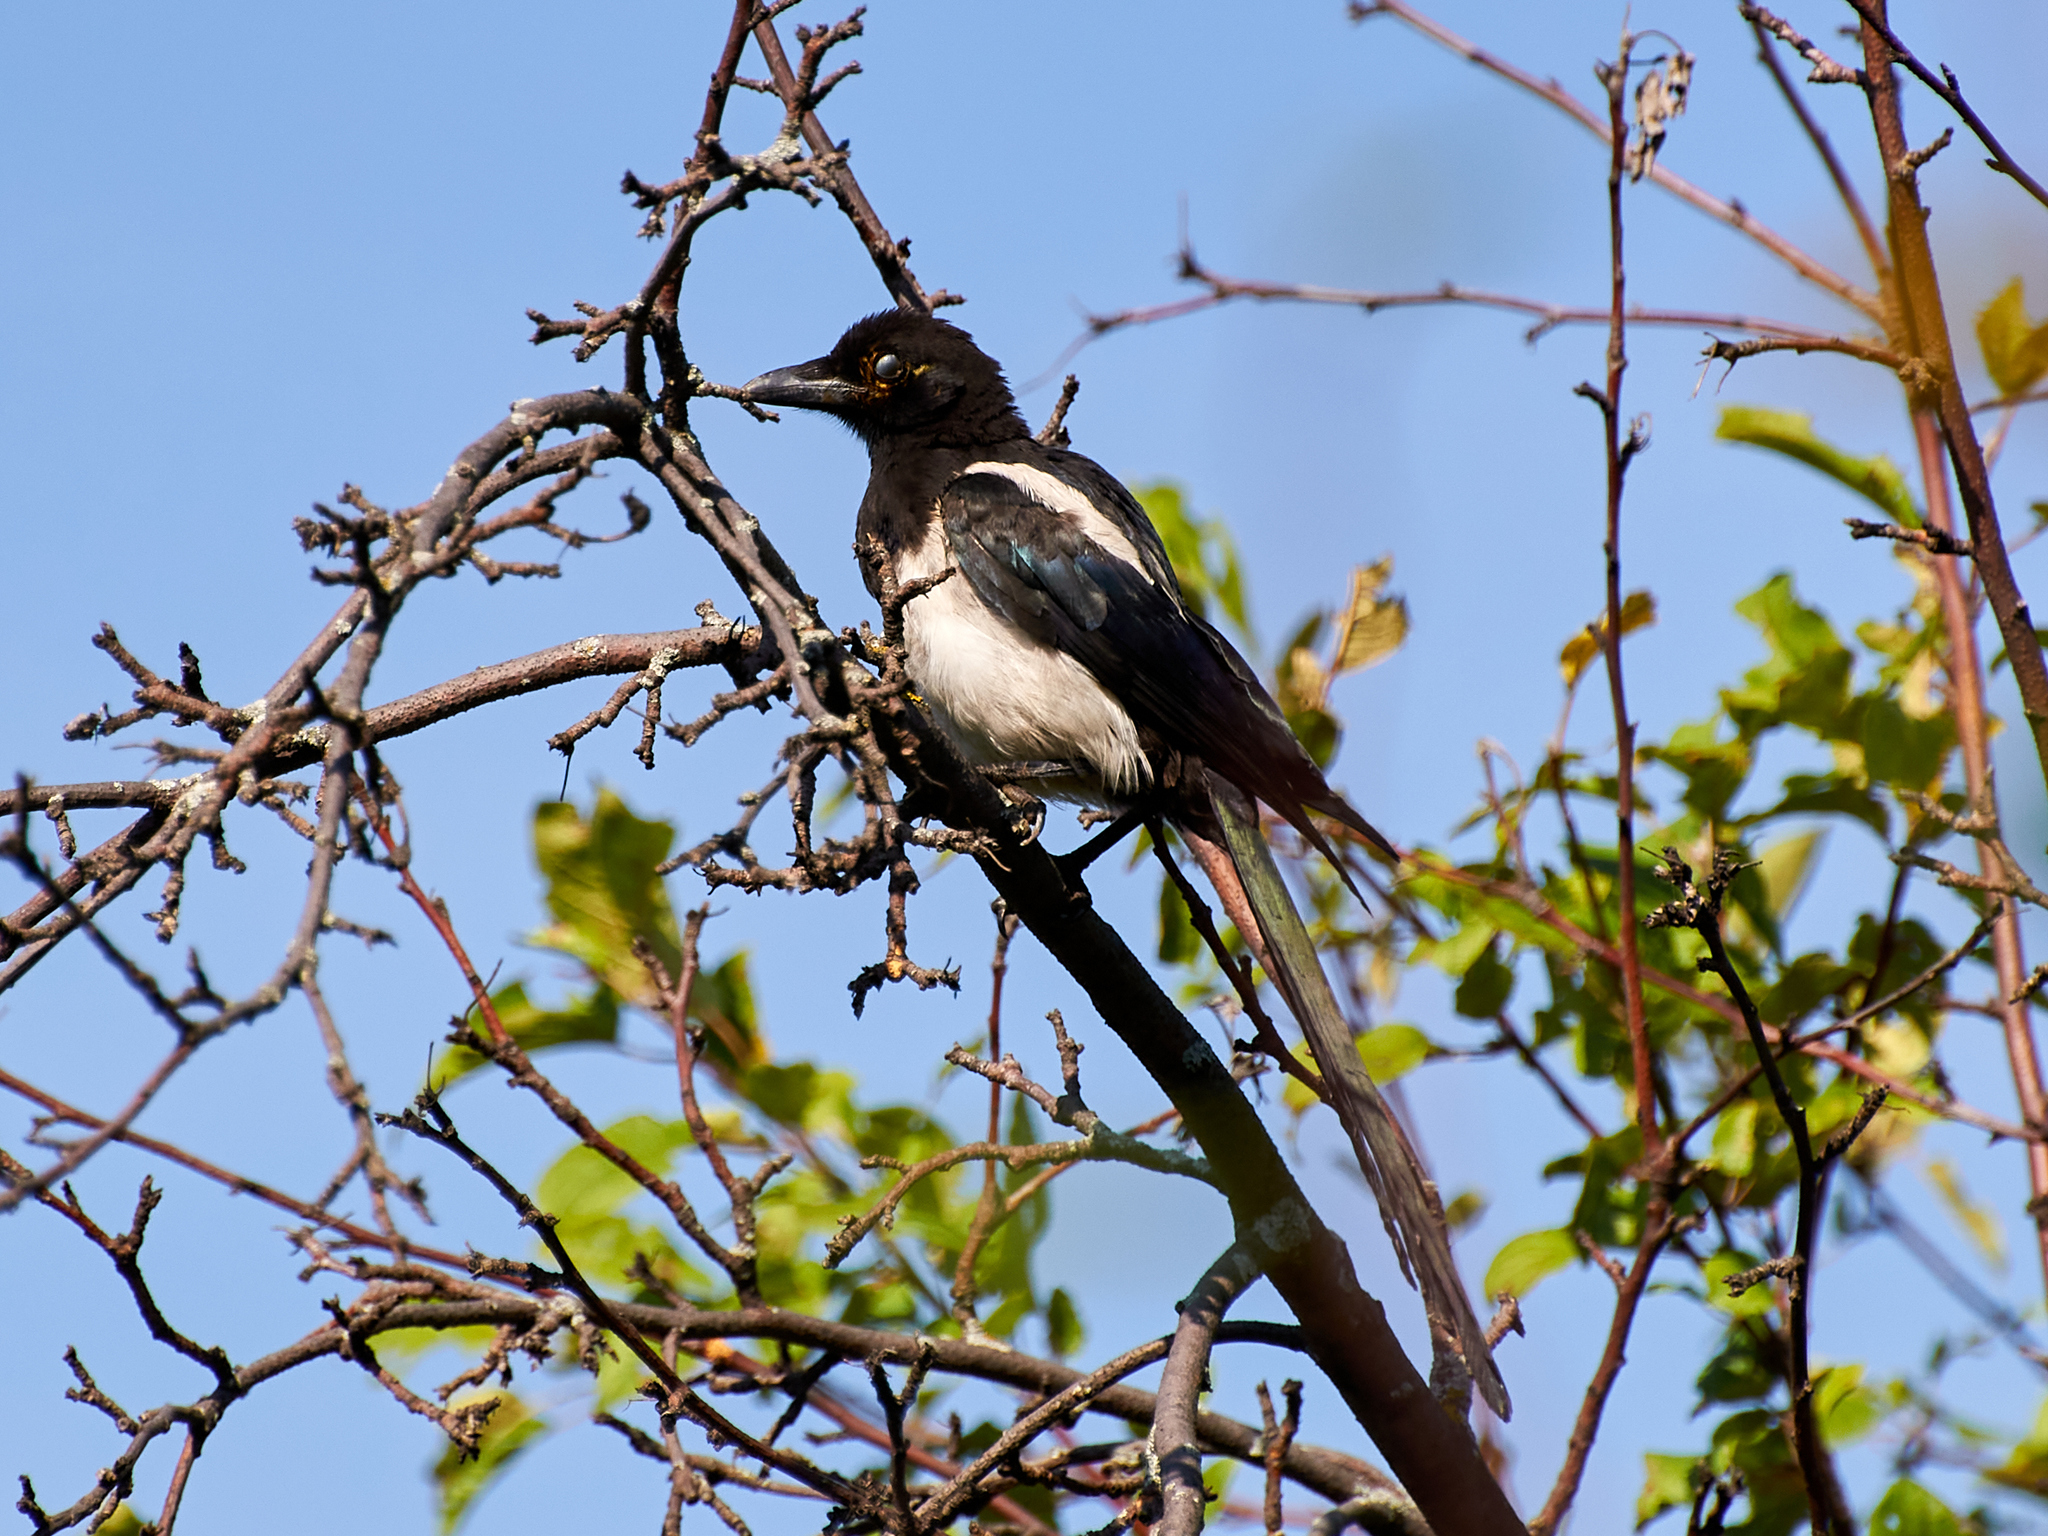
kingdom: Animalia
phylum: Chordata
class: Aves
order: Passeriformes
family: Corvidae
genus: Pica
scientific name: Pica pica
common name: Eurasian magpie
